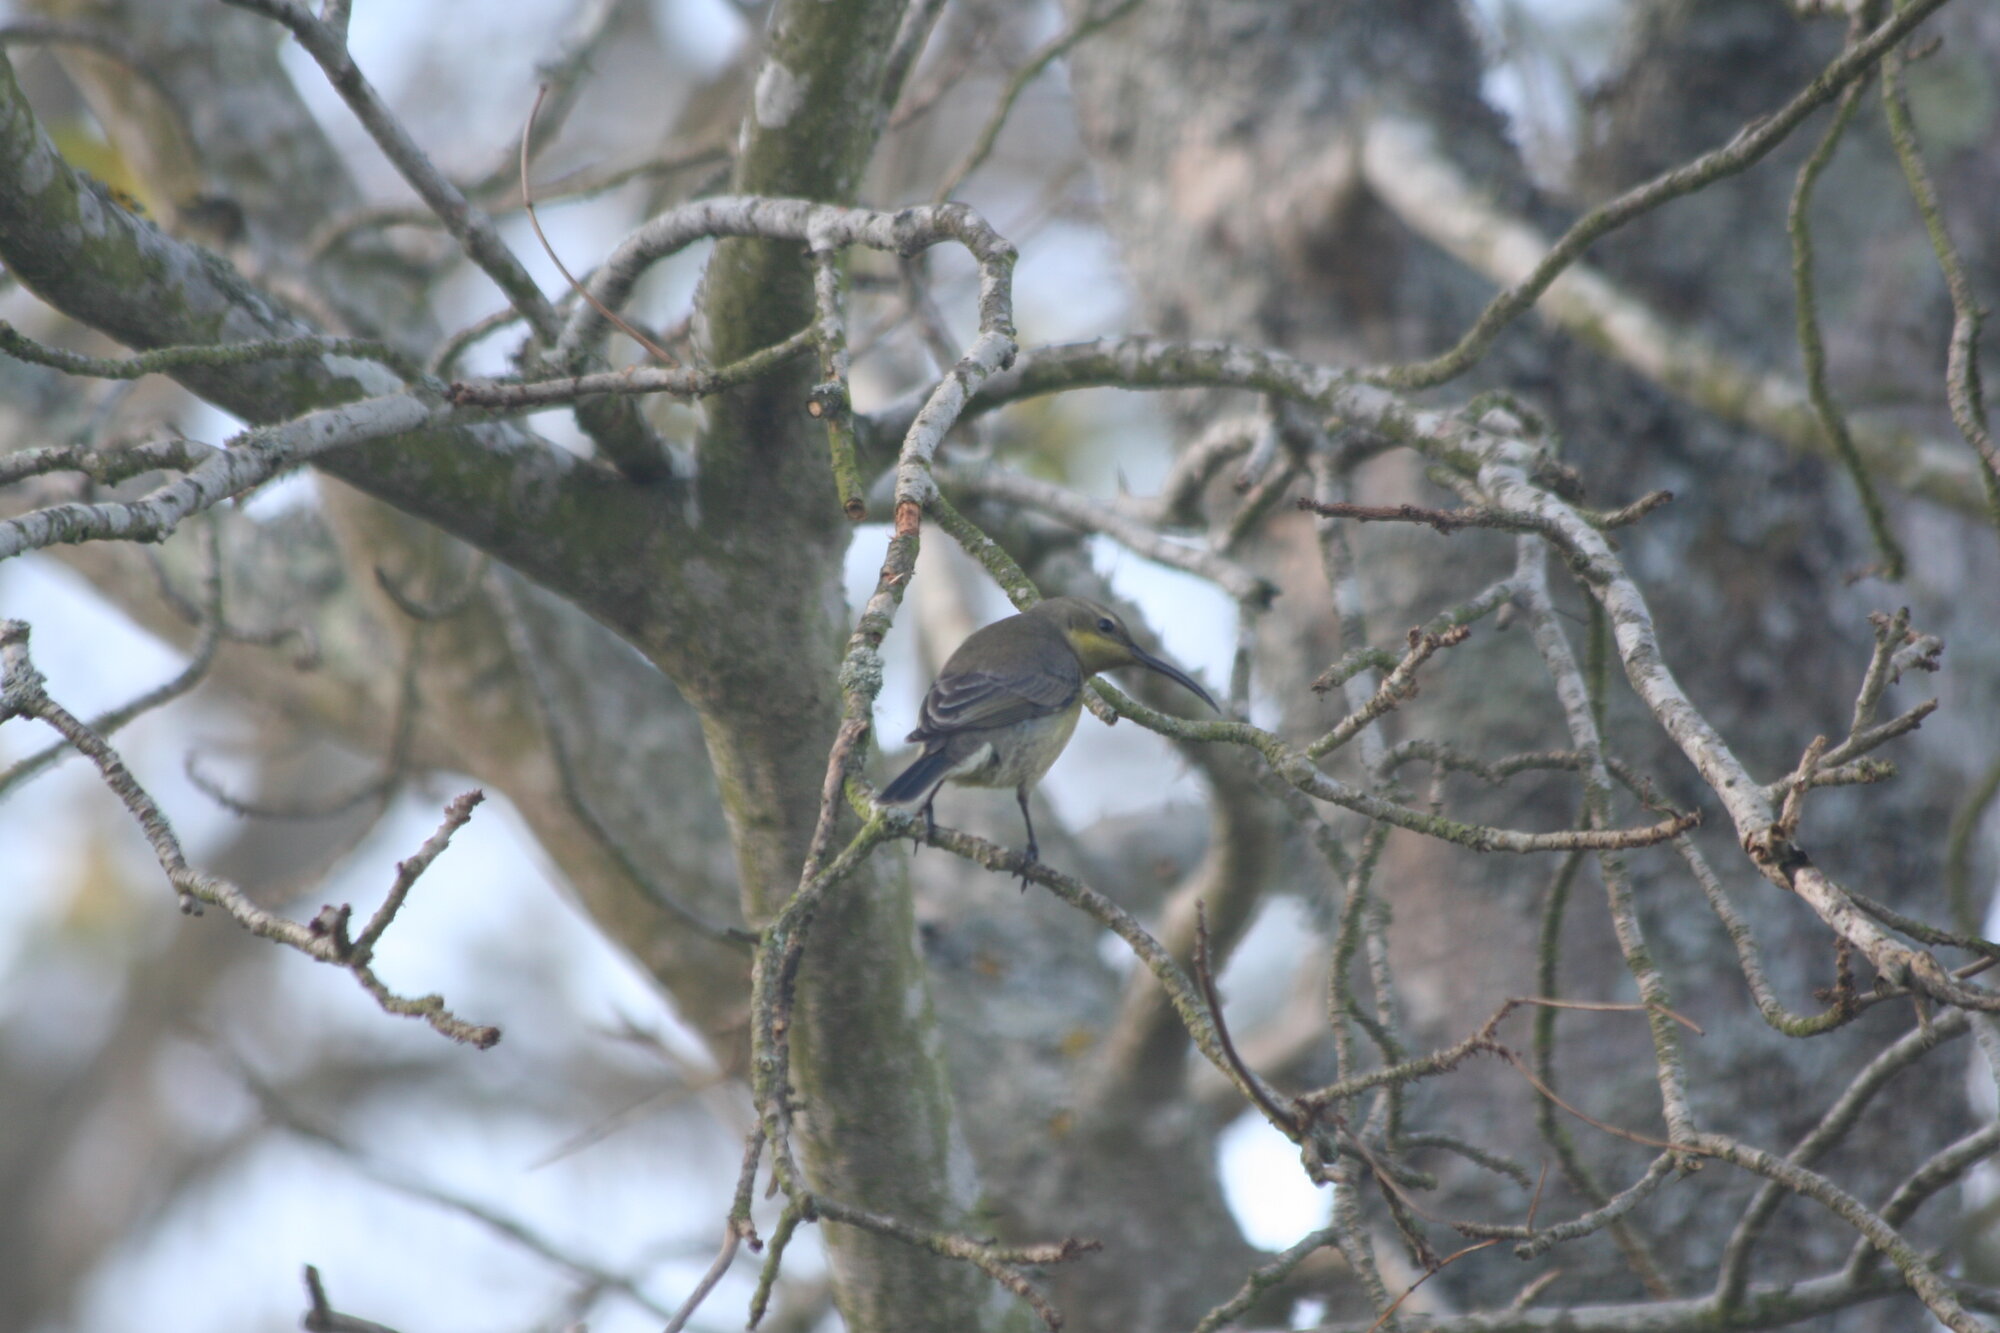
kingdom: Animalia
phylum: Chordata
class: Aves
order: Passeriformes
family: Nectariniidae
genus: Nectarinia
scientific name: Nectarinia famosa
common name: Malachite sunbird
